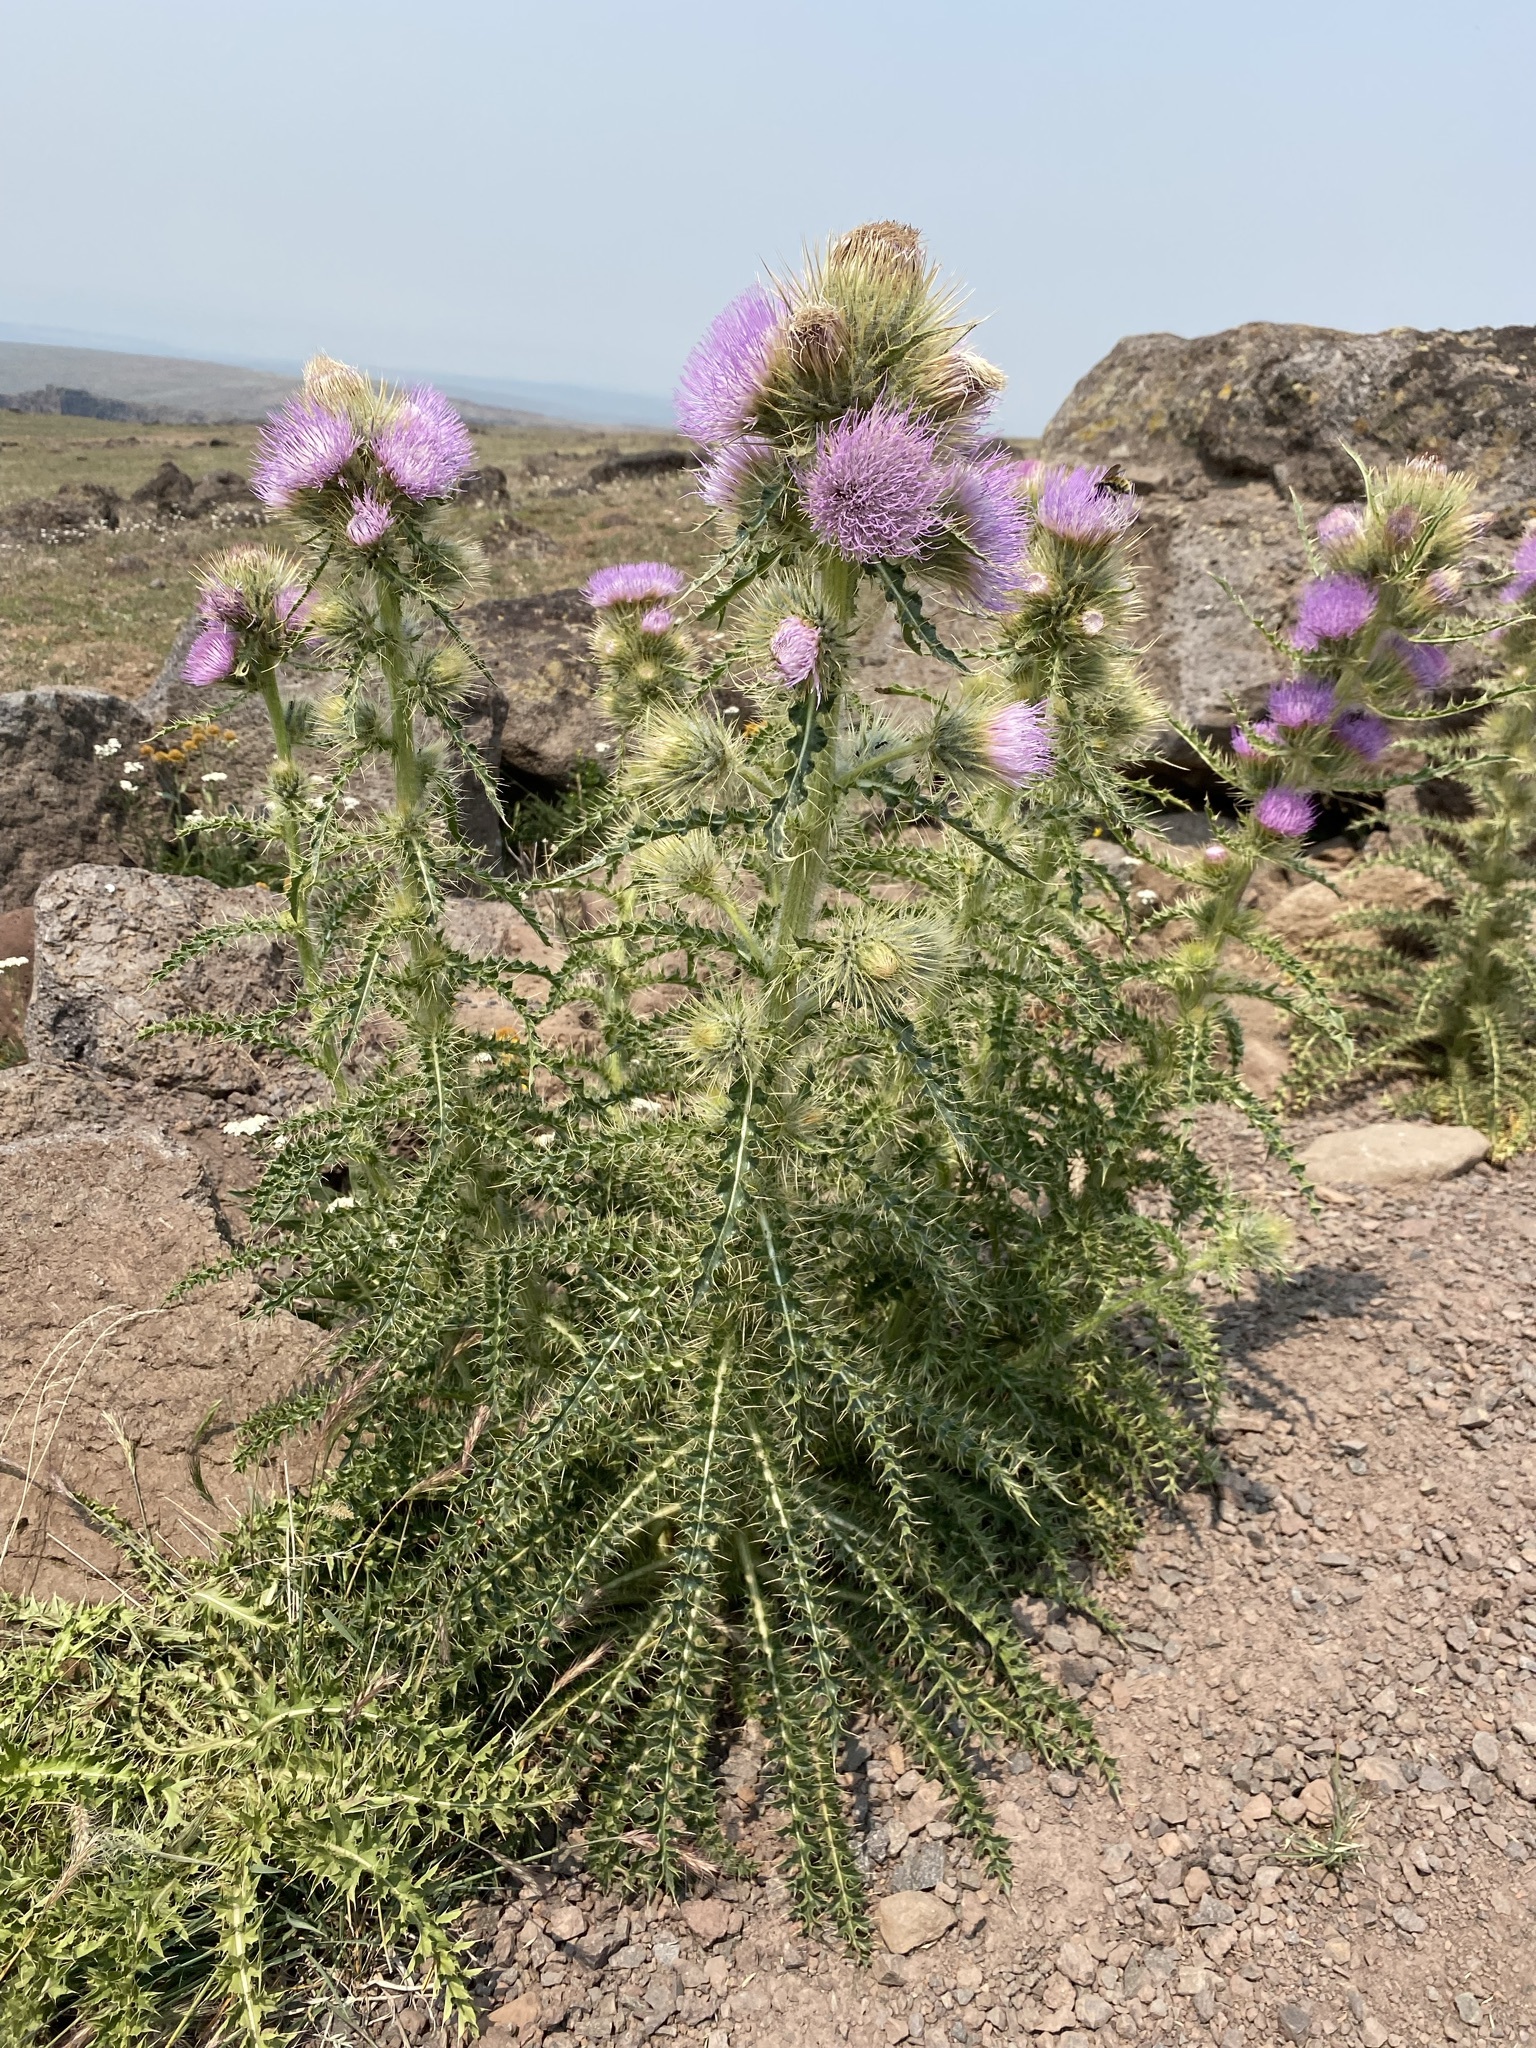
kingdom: Plantae
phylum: Tracheophyta
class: Magnoliopsida
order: Asterales
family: Asteraceae
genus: Cirsium
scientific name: Cirsium peckii
